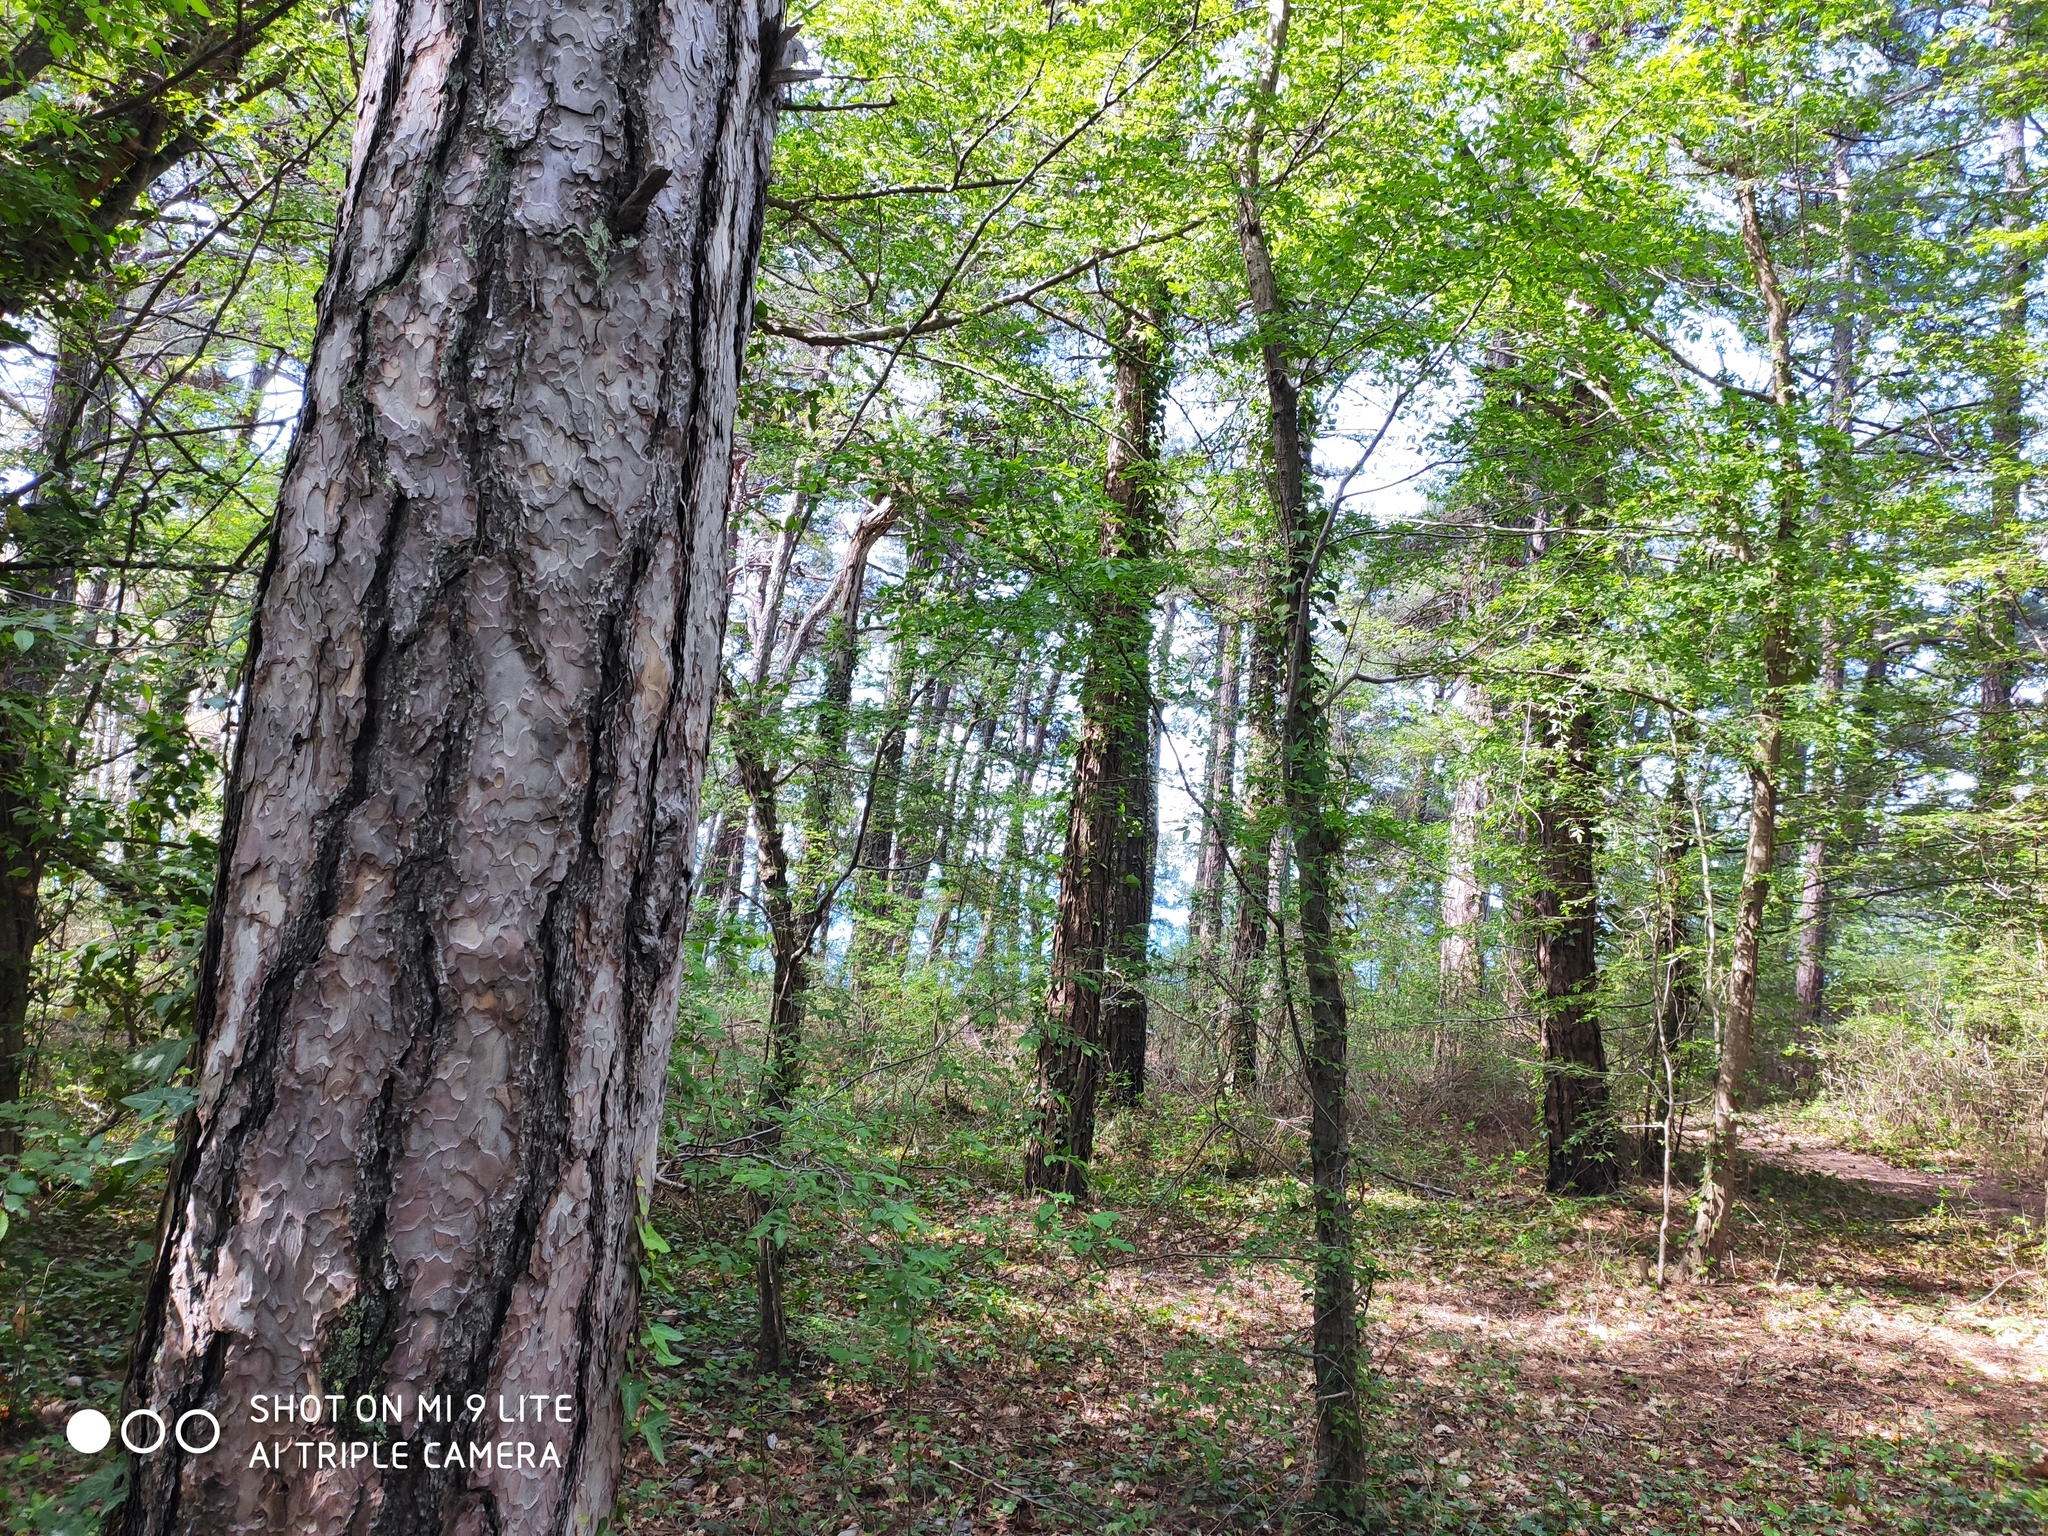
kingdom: Plantae
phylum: Tracheophyta
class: Pinopsida
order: Pinales
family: Pinaceae
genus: Pinus
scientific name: Pinus brutia
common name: Turkish pine
